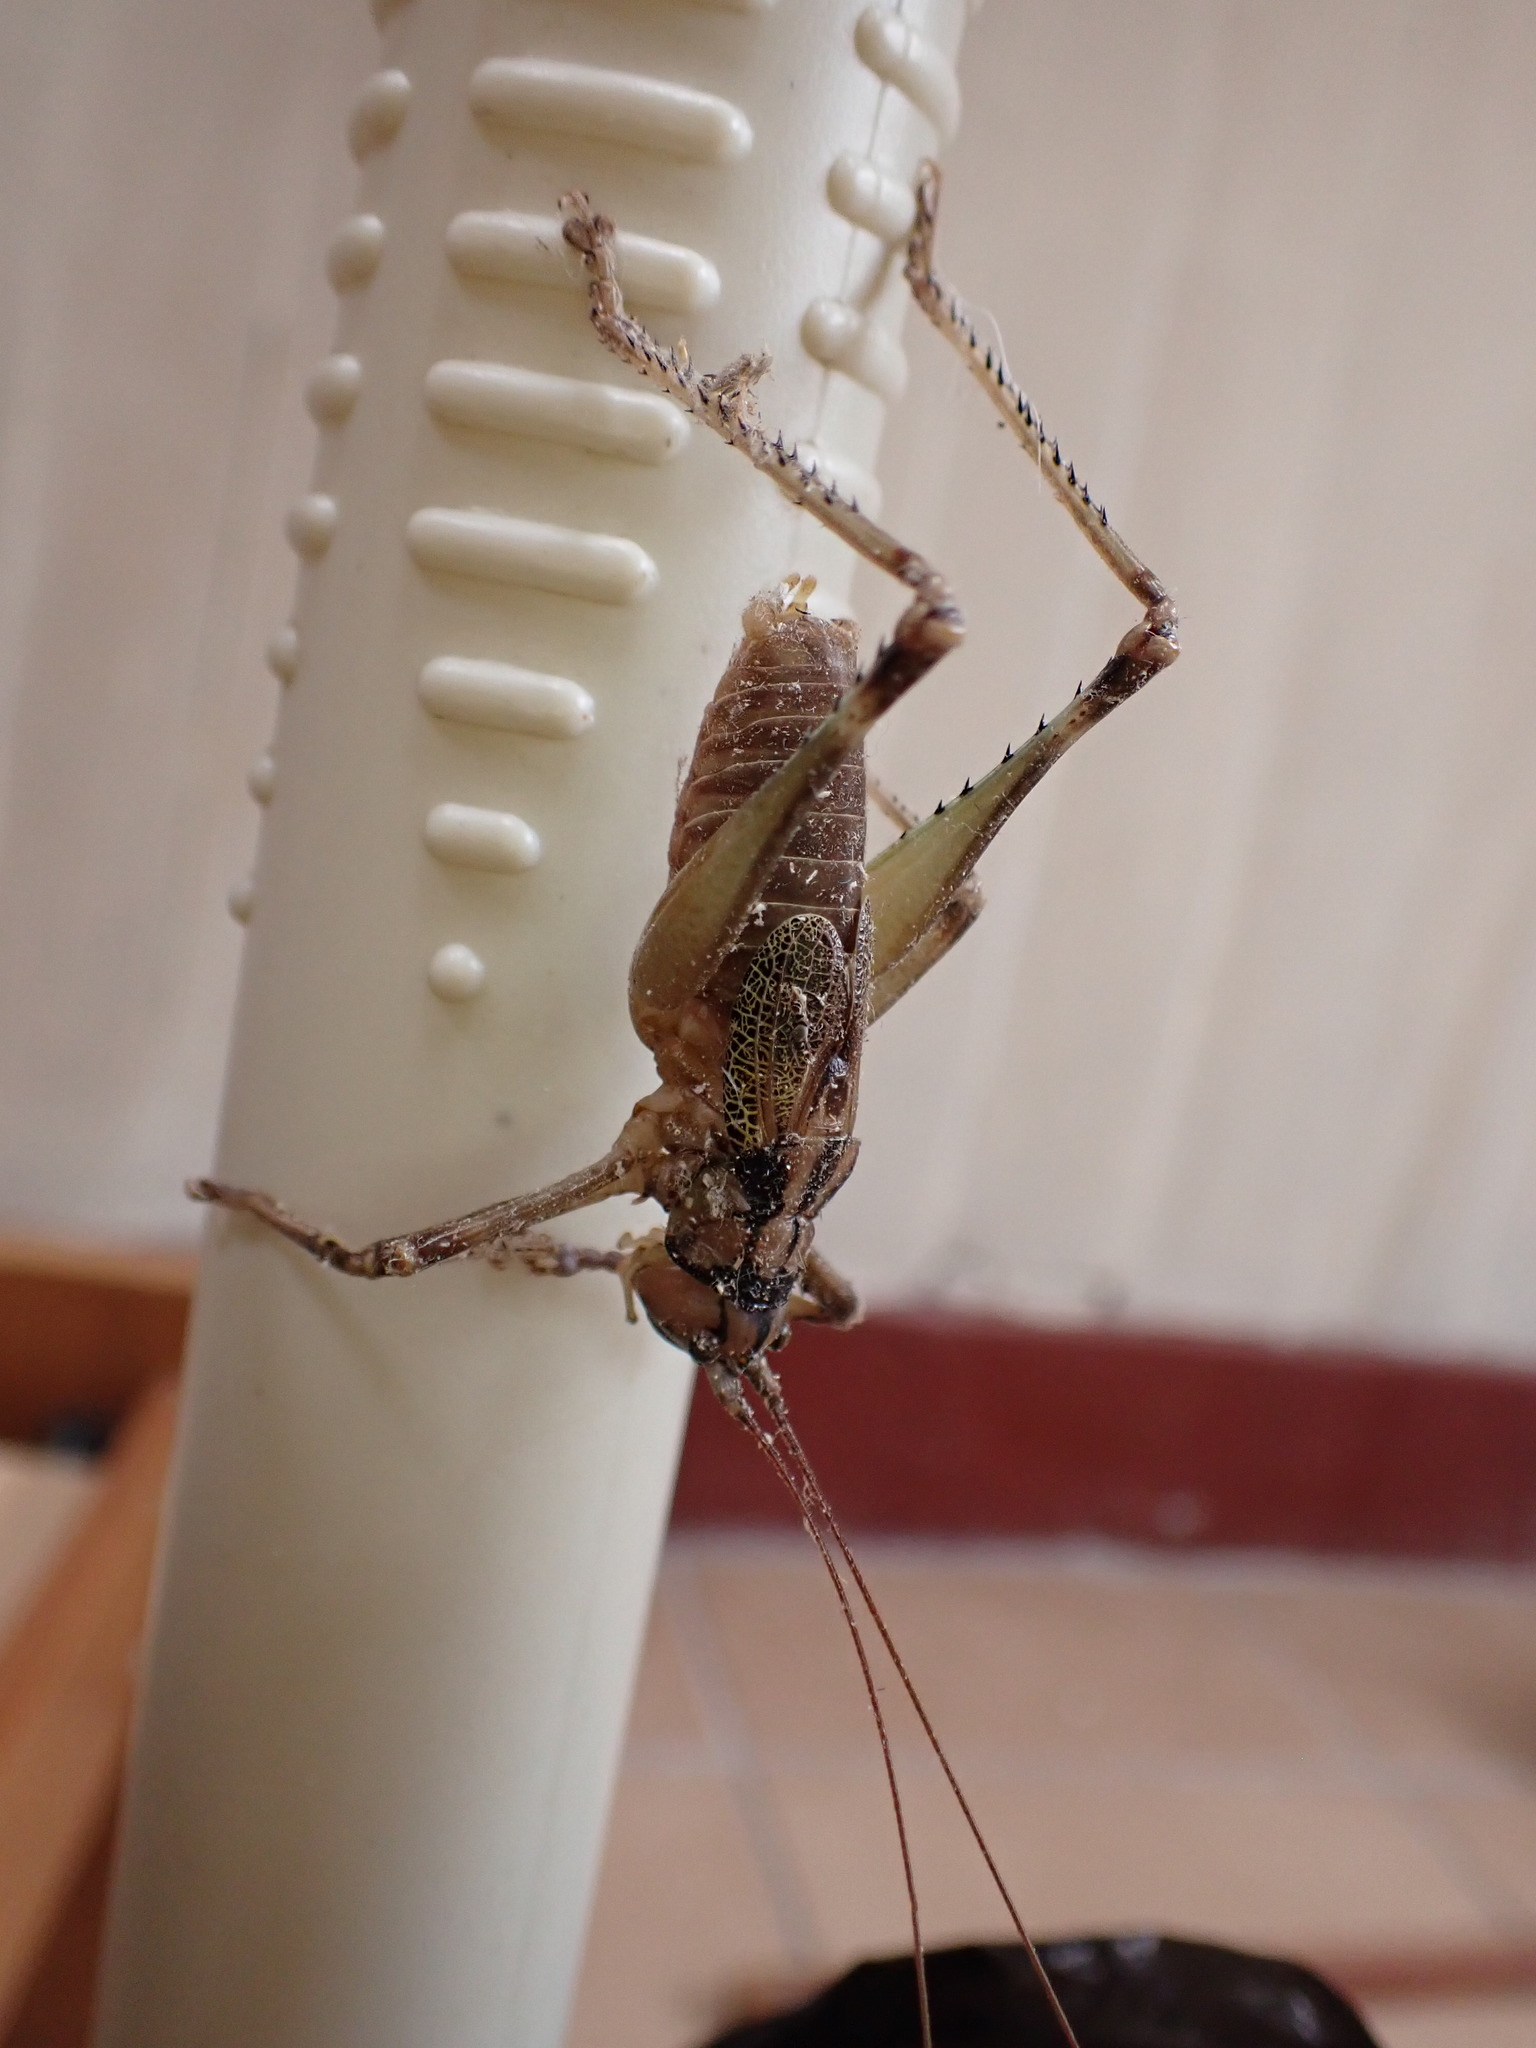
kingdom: Animalia
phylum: Arthropoda
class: Insecta
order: Orthoptera
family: Tettigoniidae
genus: Brachybliastes
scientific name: Brachybliastes paltaybamba
